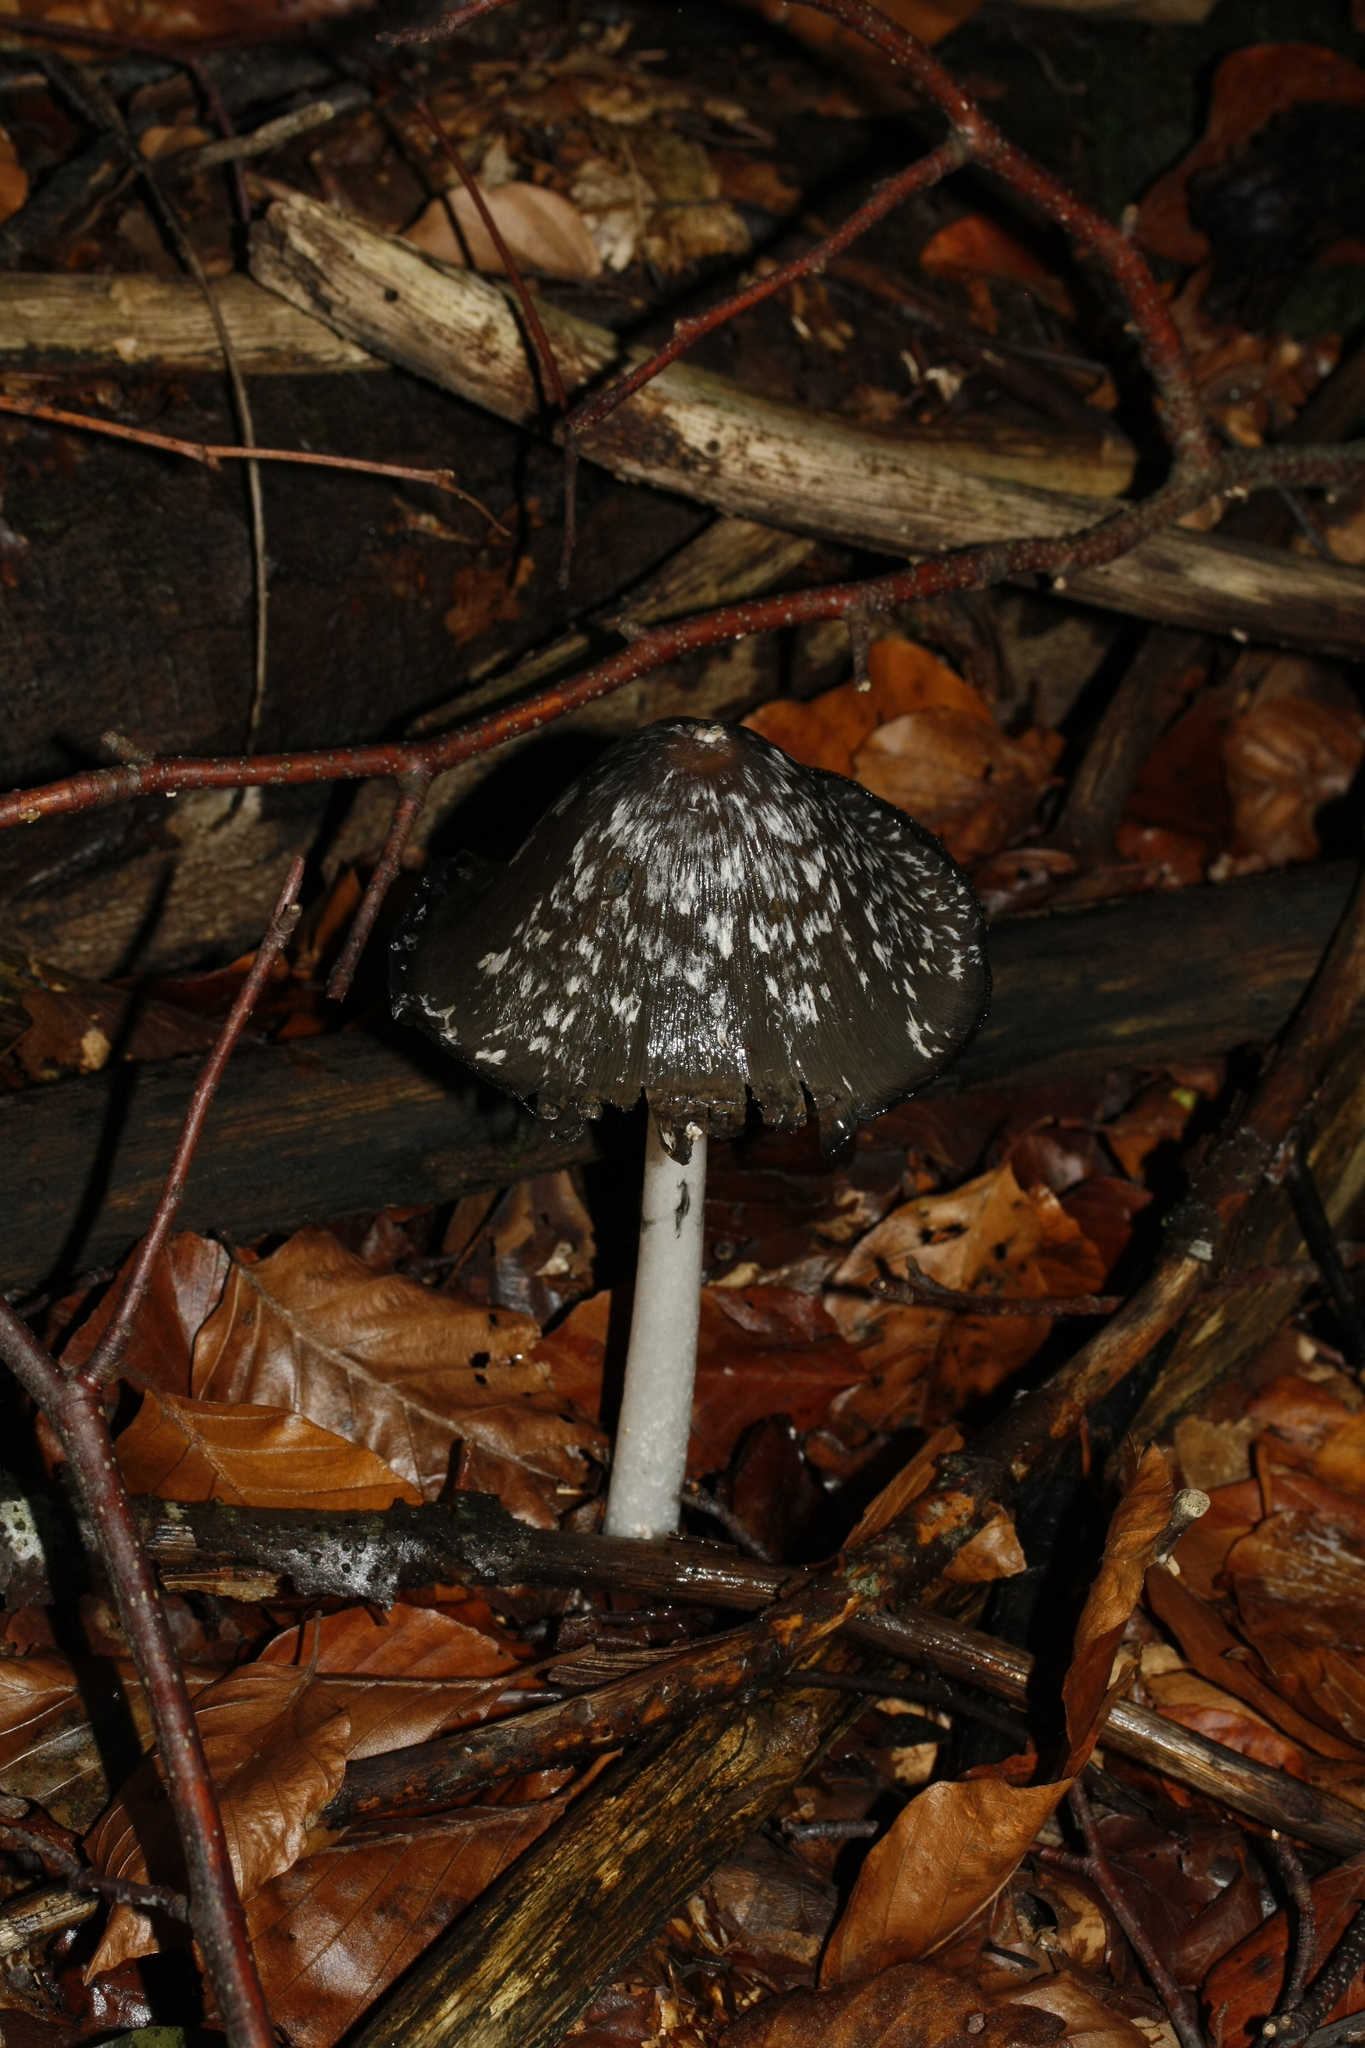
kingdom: Fungi
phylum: Basidiomycota
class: Agaricomycetes
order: Agaricales
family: Psathyrellaceae
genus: Coprinopsis
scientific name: Coprinopsis picacea
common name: Magpie inkcap
